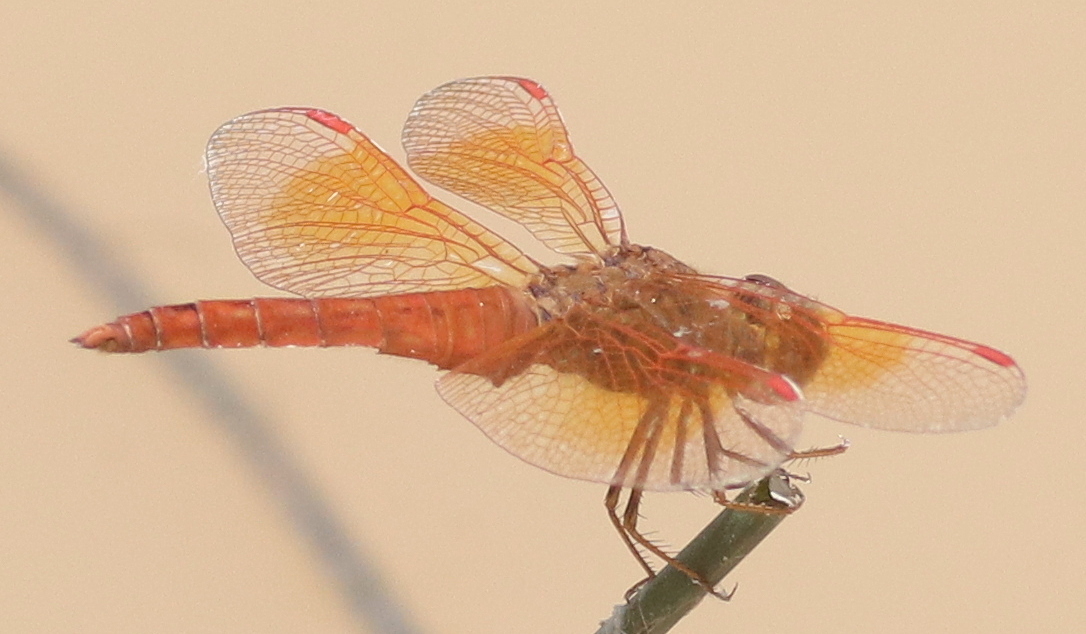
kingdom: Animalia
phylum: Arthropoda
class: Insecta
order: Odonata
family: Libellulidae
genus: Brachythemis
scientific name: Brachythemis contaminata
